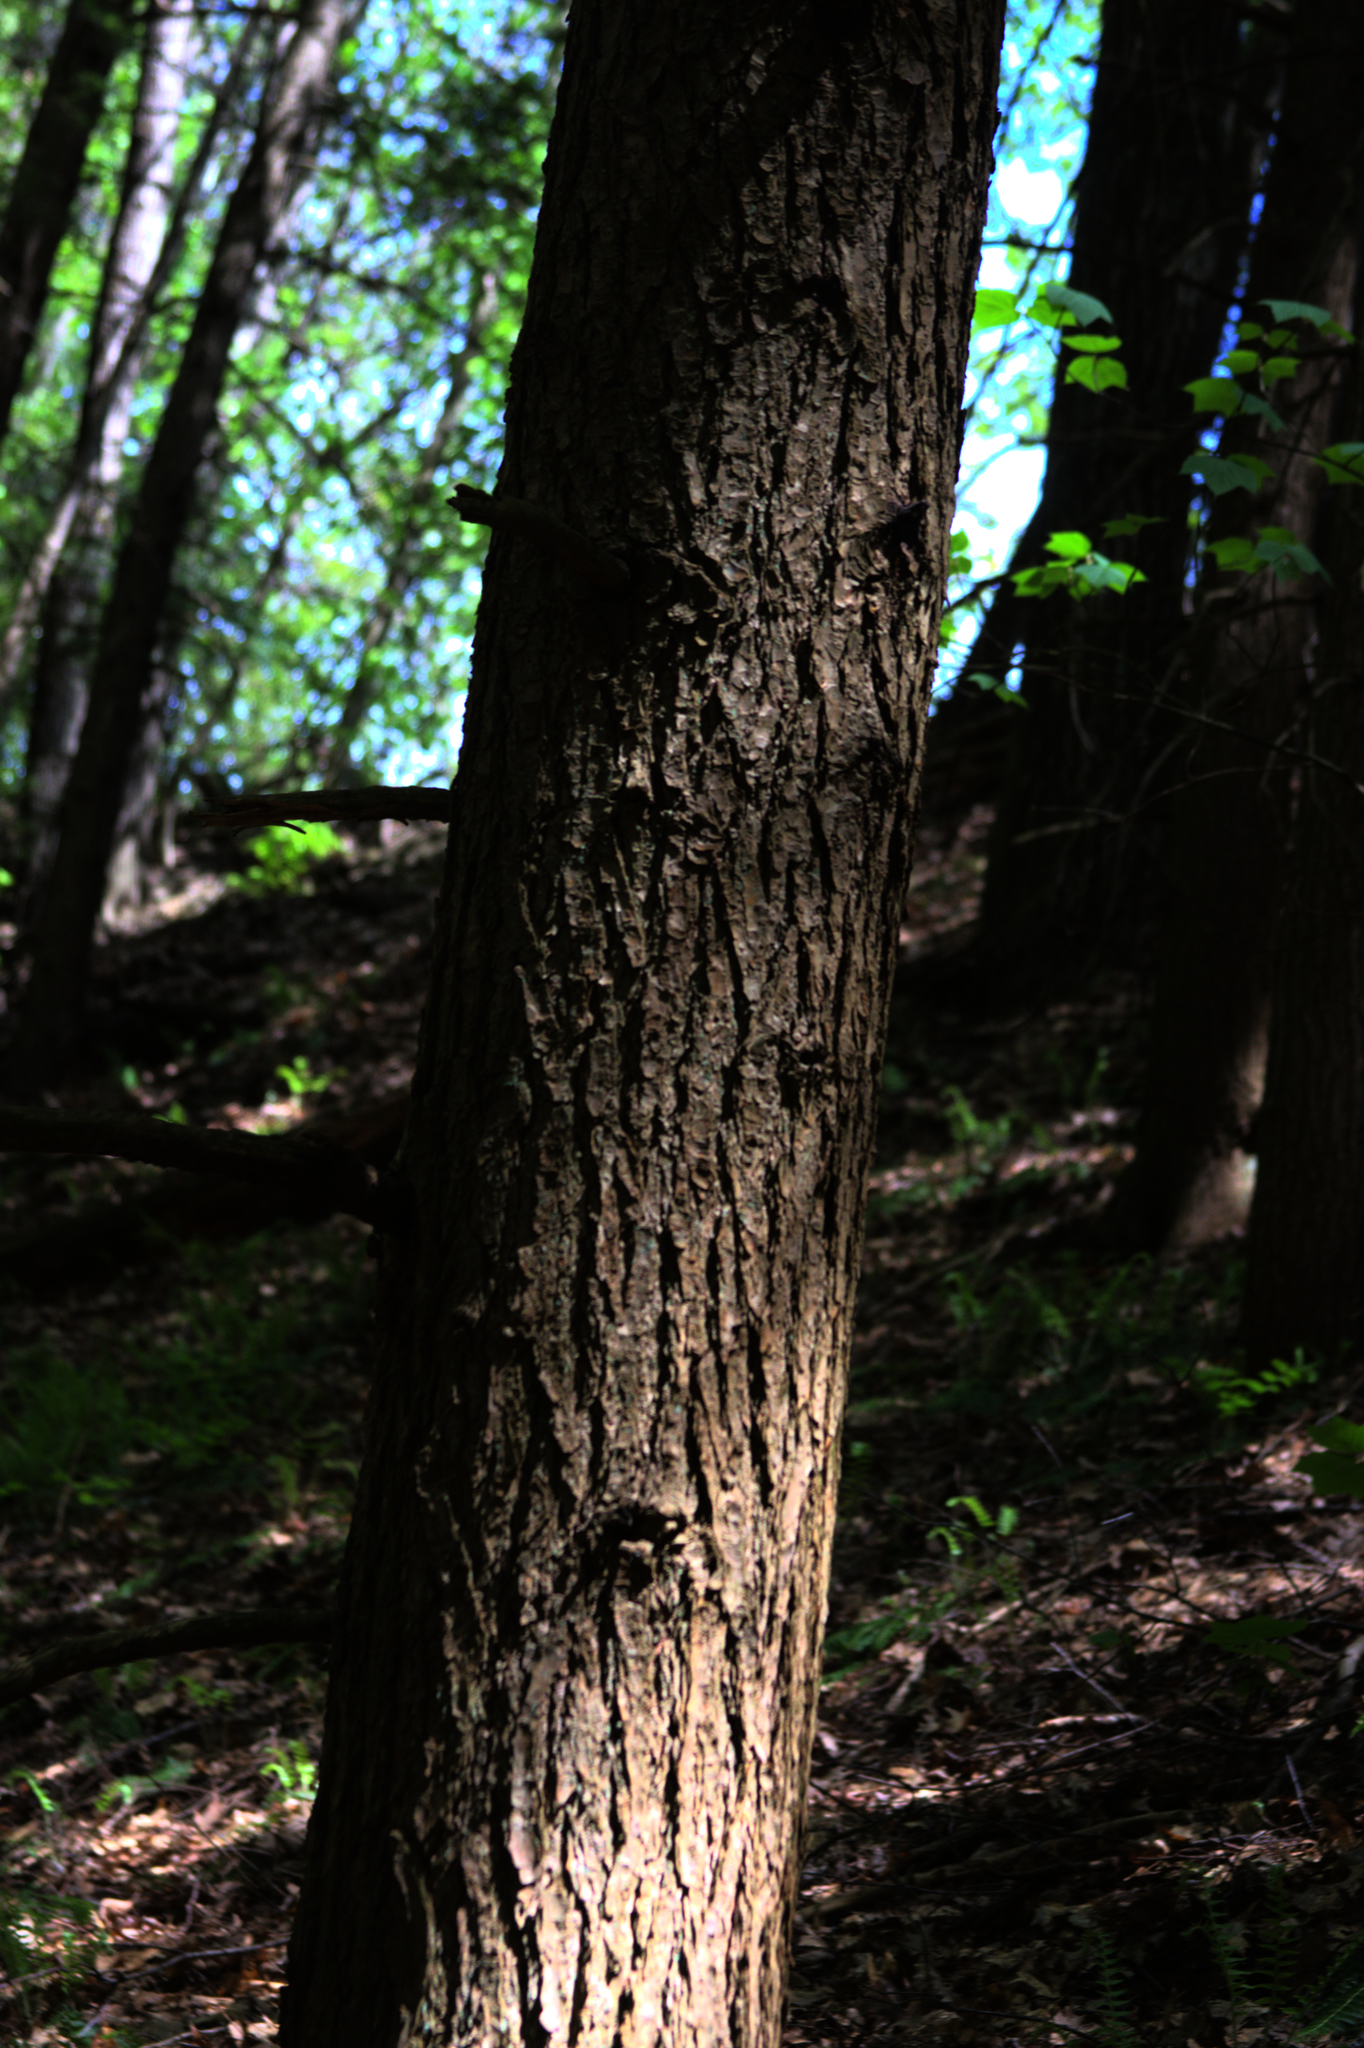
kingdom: Plantae
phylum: Tracheophyta
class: Pinopsida
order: Pinales
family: Pinaceae
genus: Tsuga
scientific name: Tsuga canadensis
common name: Eastern hemlock
